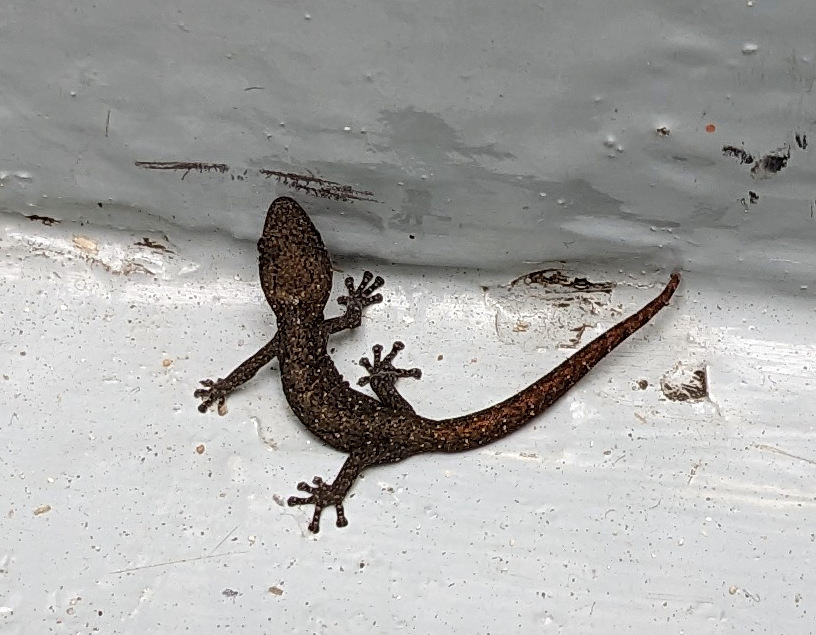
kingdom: Animalia
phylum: Chordata
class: Squamata
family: Gekkonidae
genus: Afrogecko
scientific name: Afrogecko porphyreus
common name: Marbled leaf-toed gecko
